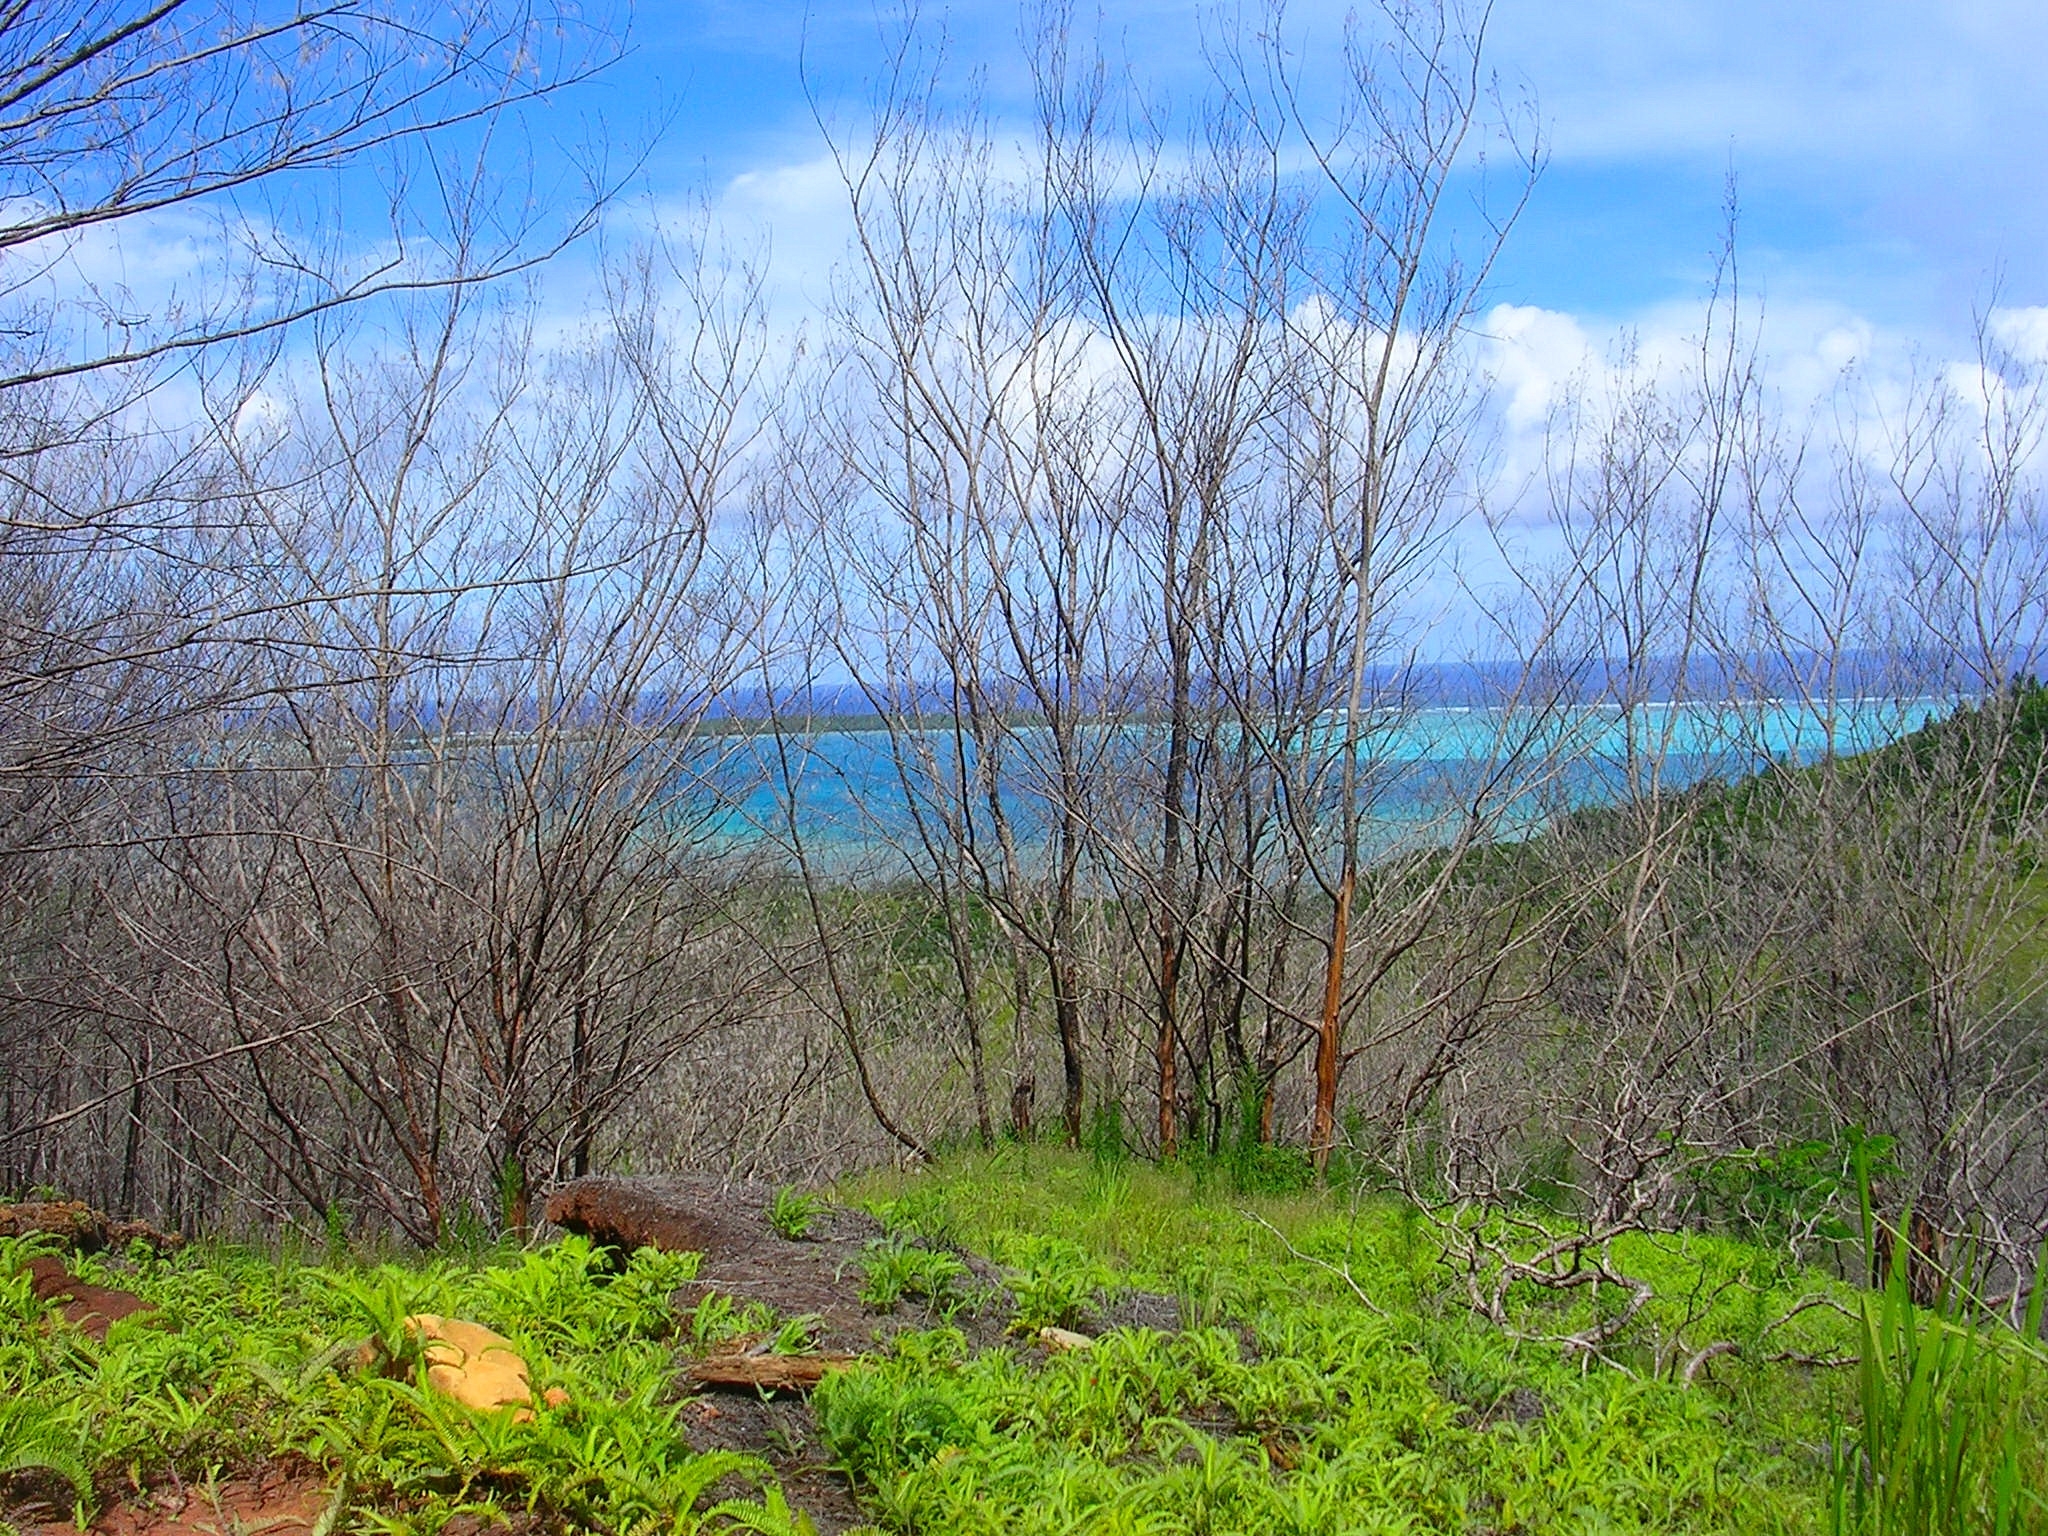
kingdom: Plantae
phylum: Tracheophyta
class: Polypodiopsida
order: Gleicheniales
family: Gleicheniaceae
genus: Dicranopteris
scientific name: Dicranopteris linearis
